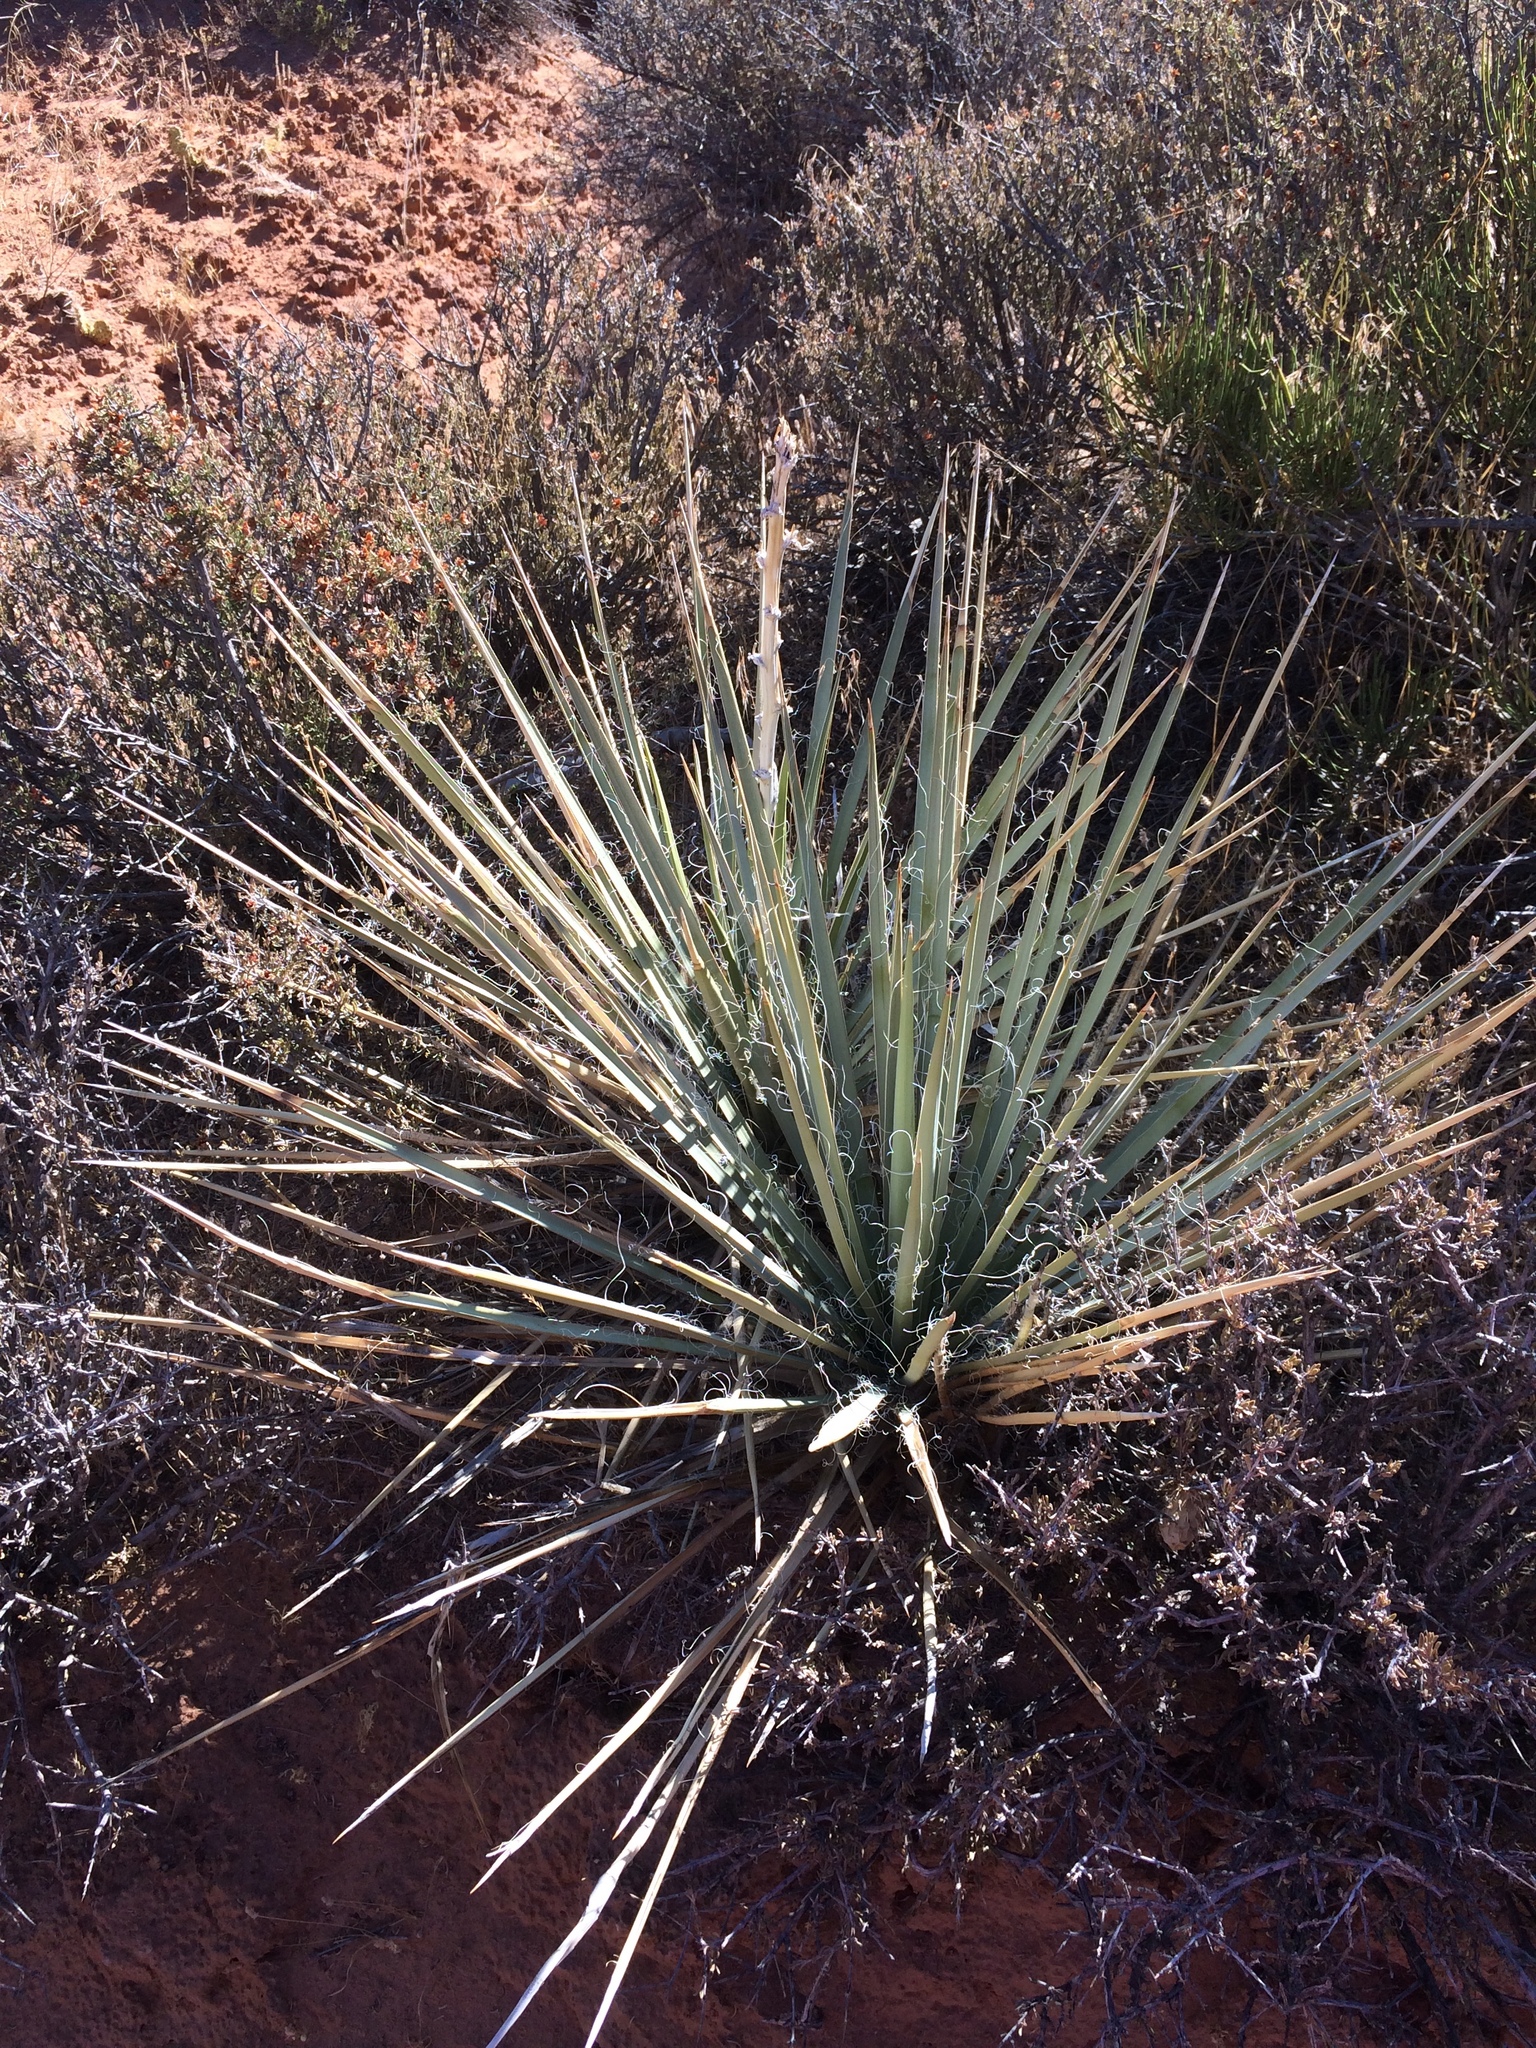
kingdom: Plantae
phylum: Tracheophyta
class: Liliopsida
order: Asparagales
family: Asparagaceae
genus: Yucca
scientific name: Yucca angustissima
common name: Narrowleaf yucca
